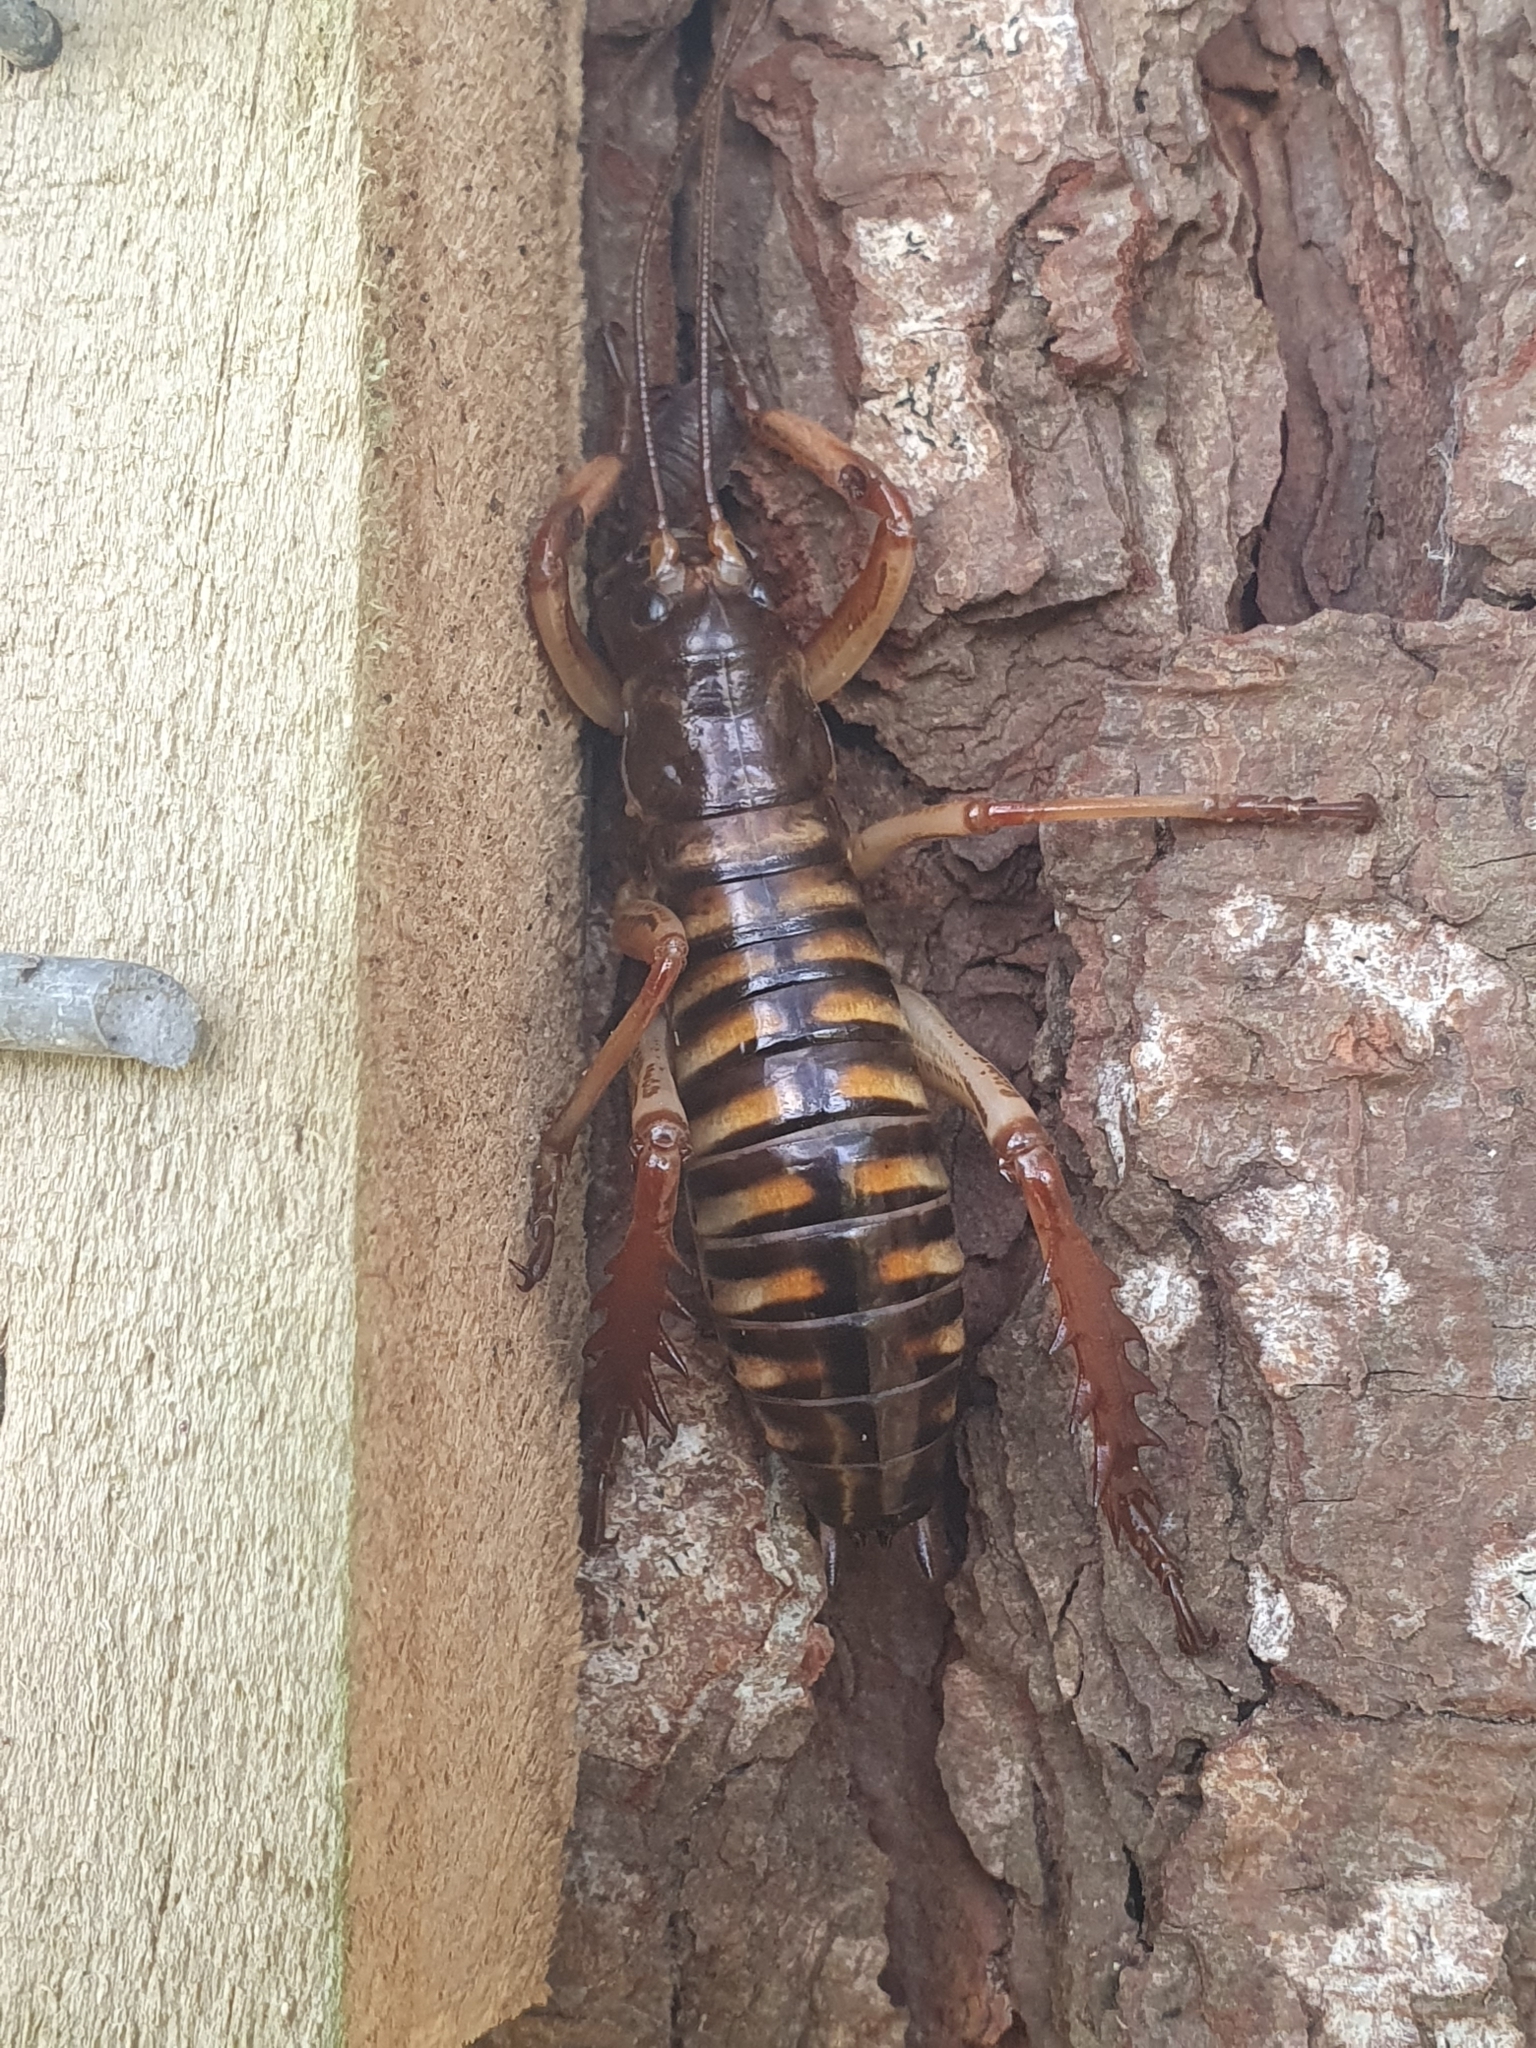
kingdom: Animalia
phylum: Arthropoda
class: Insecta
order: Orthoptera
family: Anostostomatidae
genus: Hemideina
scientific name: Hemideina crassidens
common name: Wellington tree weta
